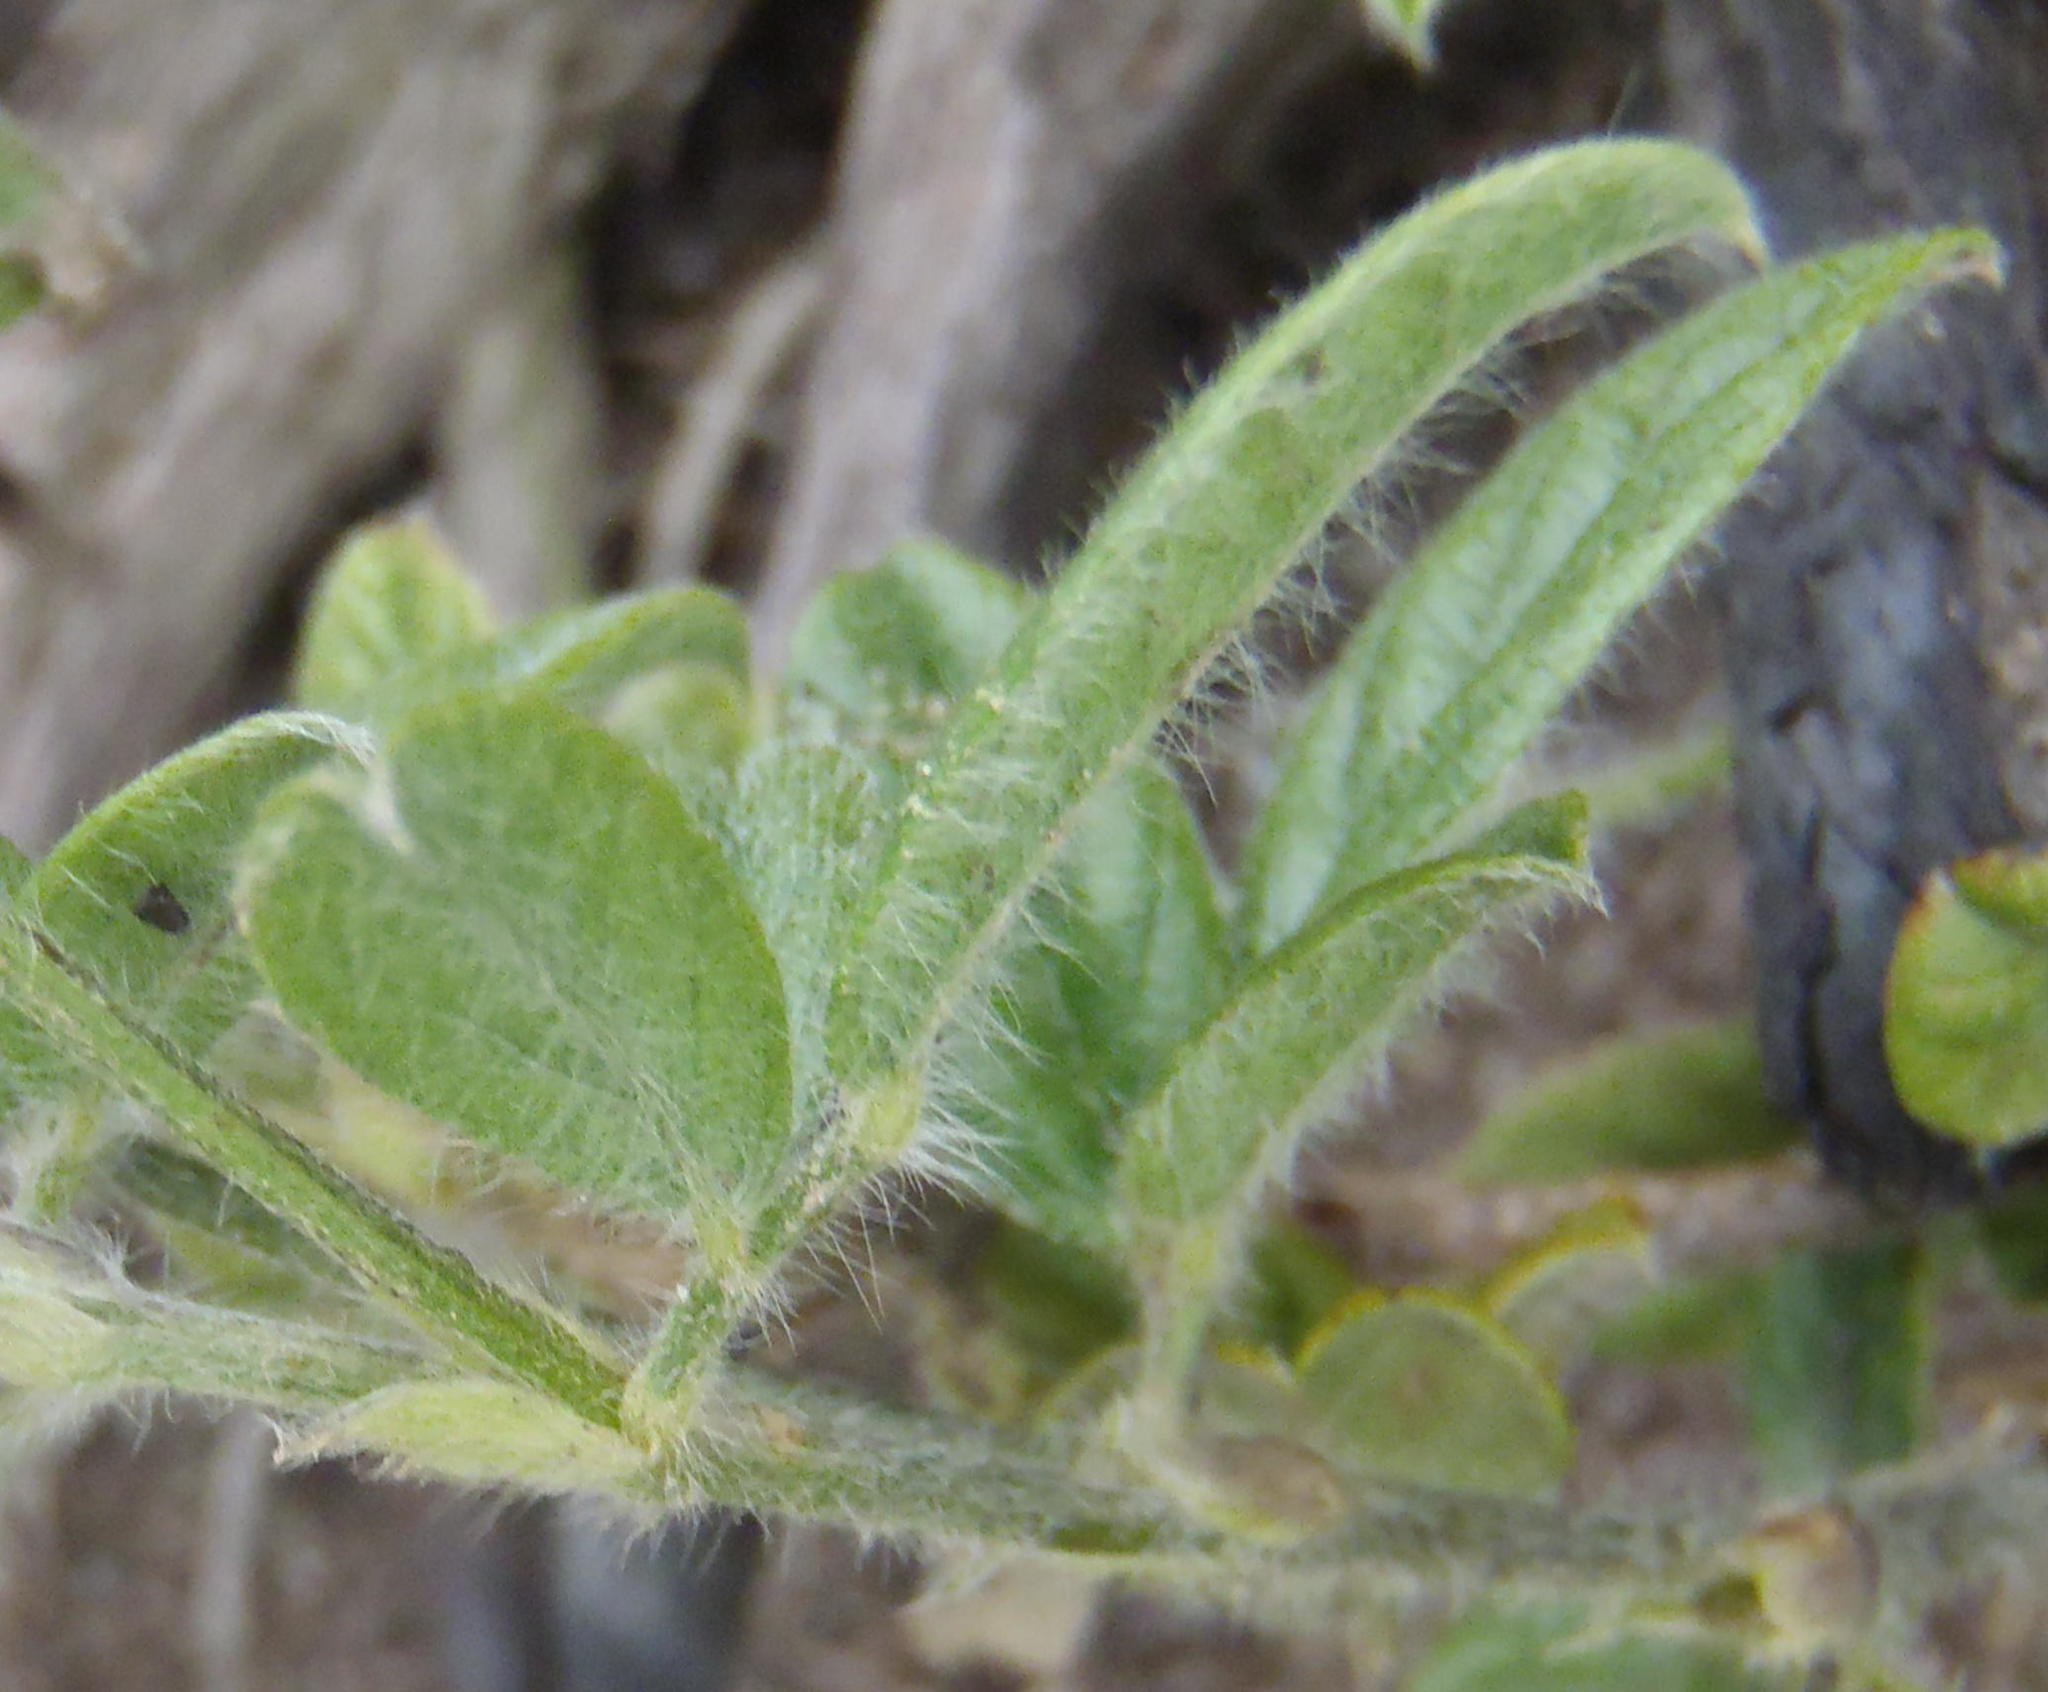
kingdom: Plantae
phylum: Tracheophyta
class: Magnoliopsida
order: Fabales
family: Fabaceae
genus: Psoralea
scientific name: Psoralea swartbergensis
